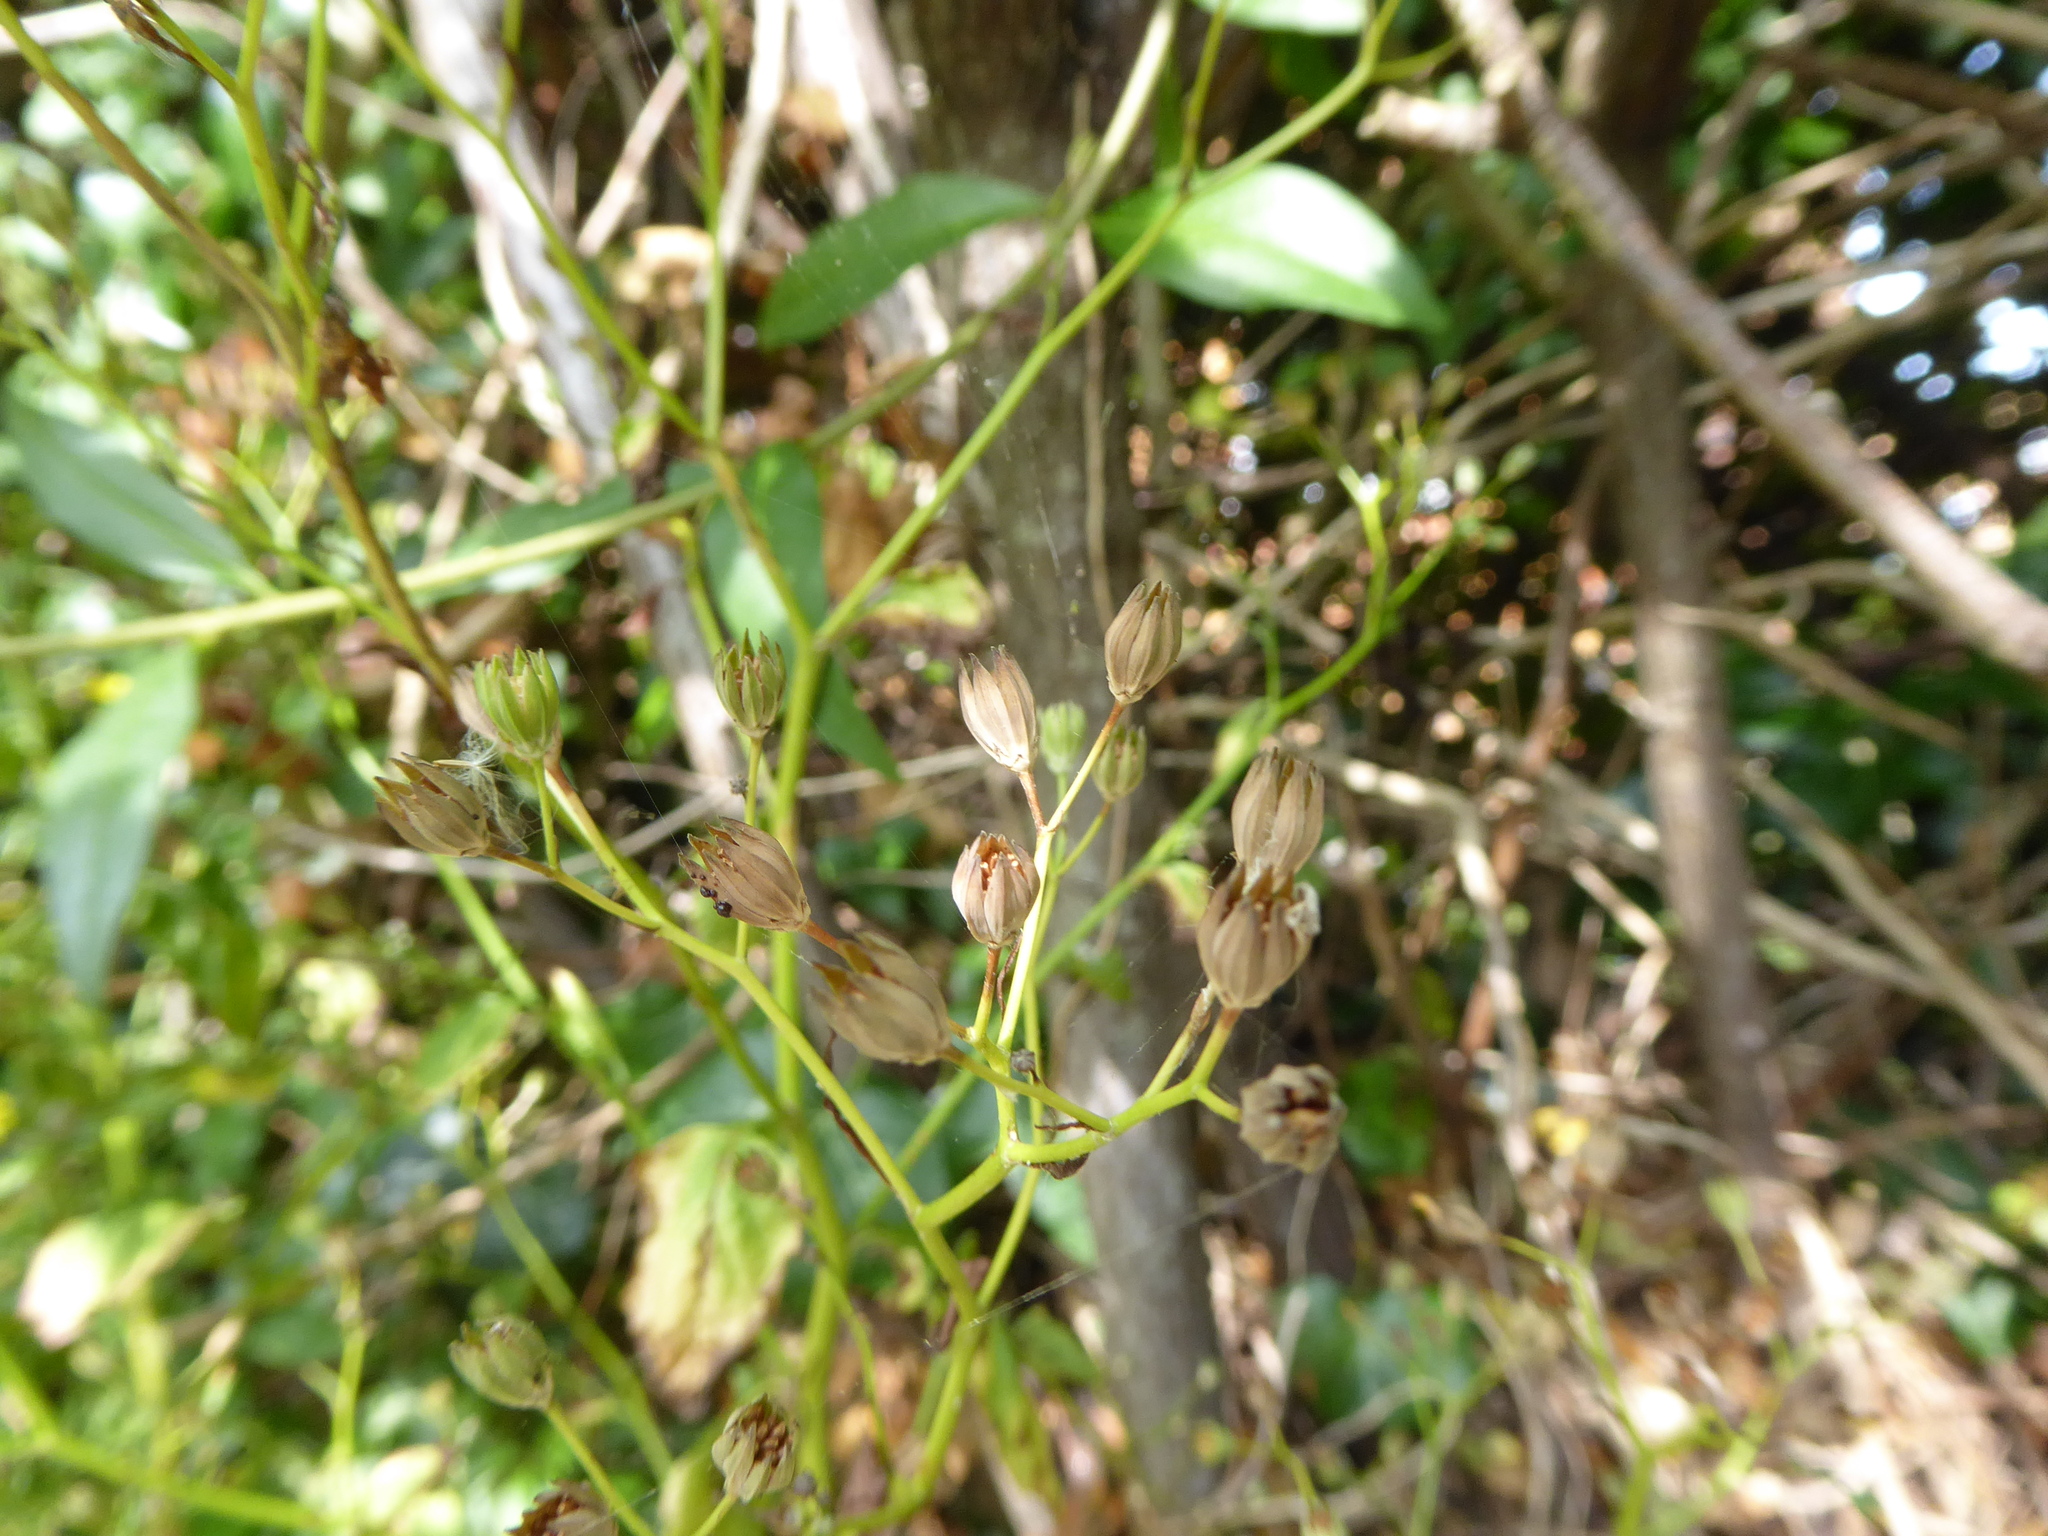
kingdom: Plantae
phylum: Tracheophyta
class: Magnoliopsida
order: Asterales
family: Asteraceae
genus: Lapsana
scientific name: Lapsana communis
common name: Nipplewort
